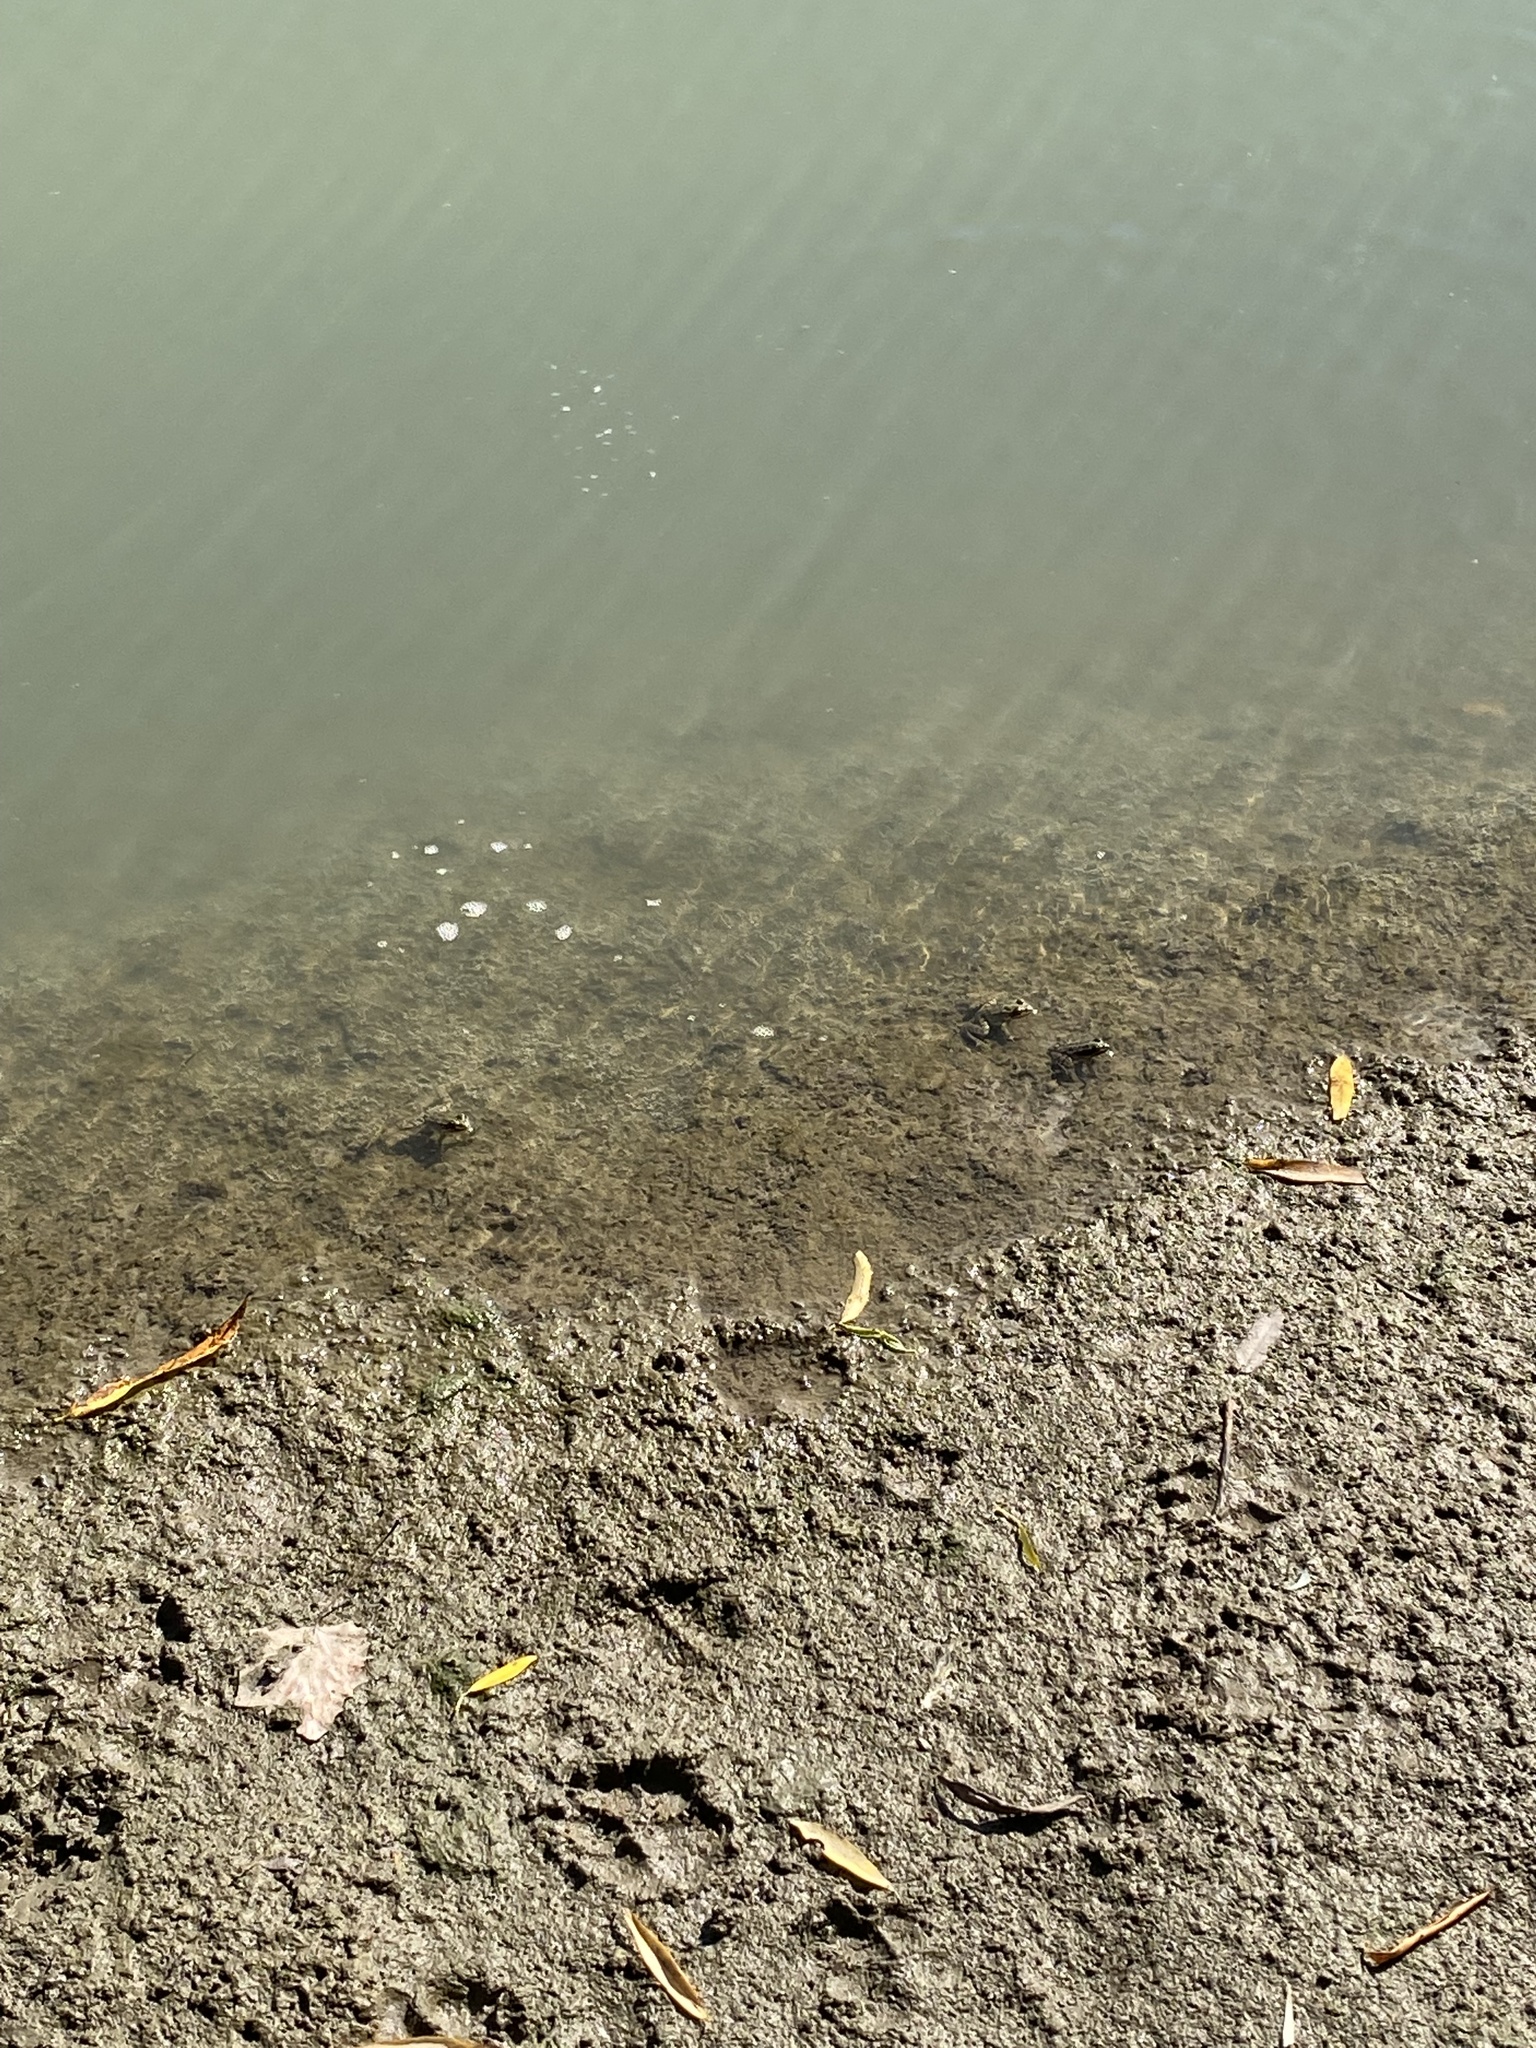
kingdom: Animalia
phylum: Chordata
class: Amphibia
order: Anura
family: Ranidae
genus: Pelophylax
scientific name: Pelophylax ridibundus
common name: Marsh frog
